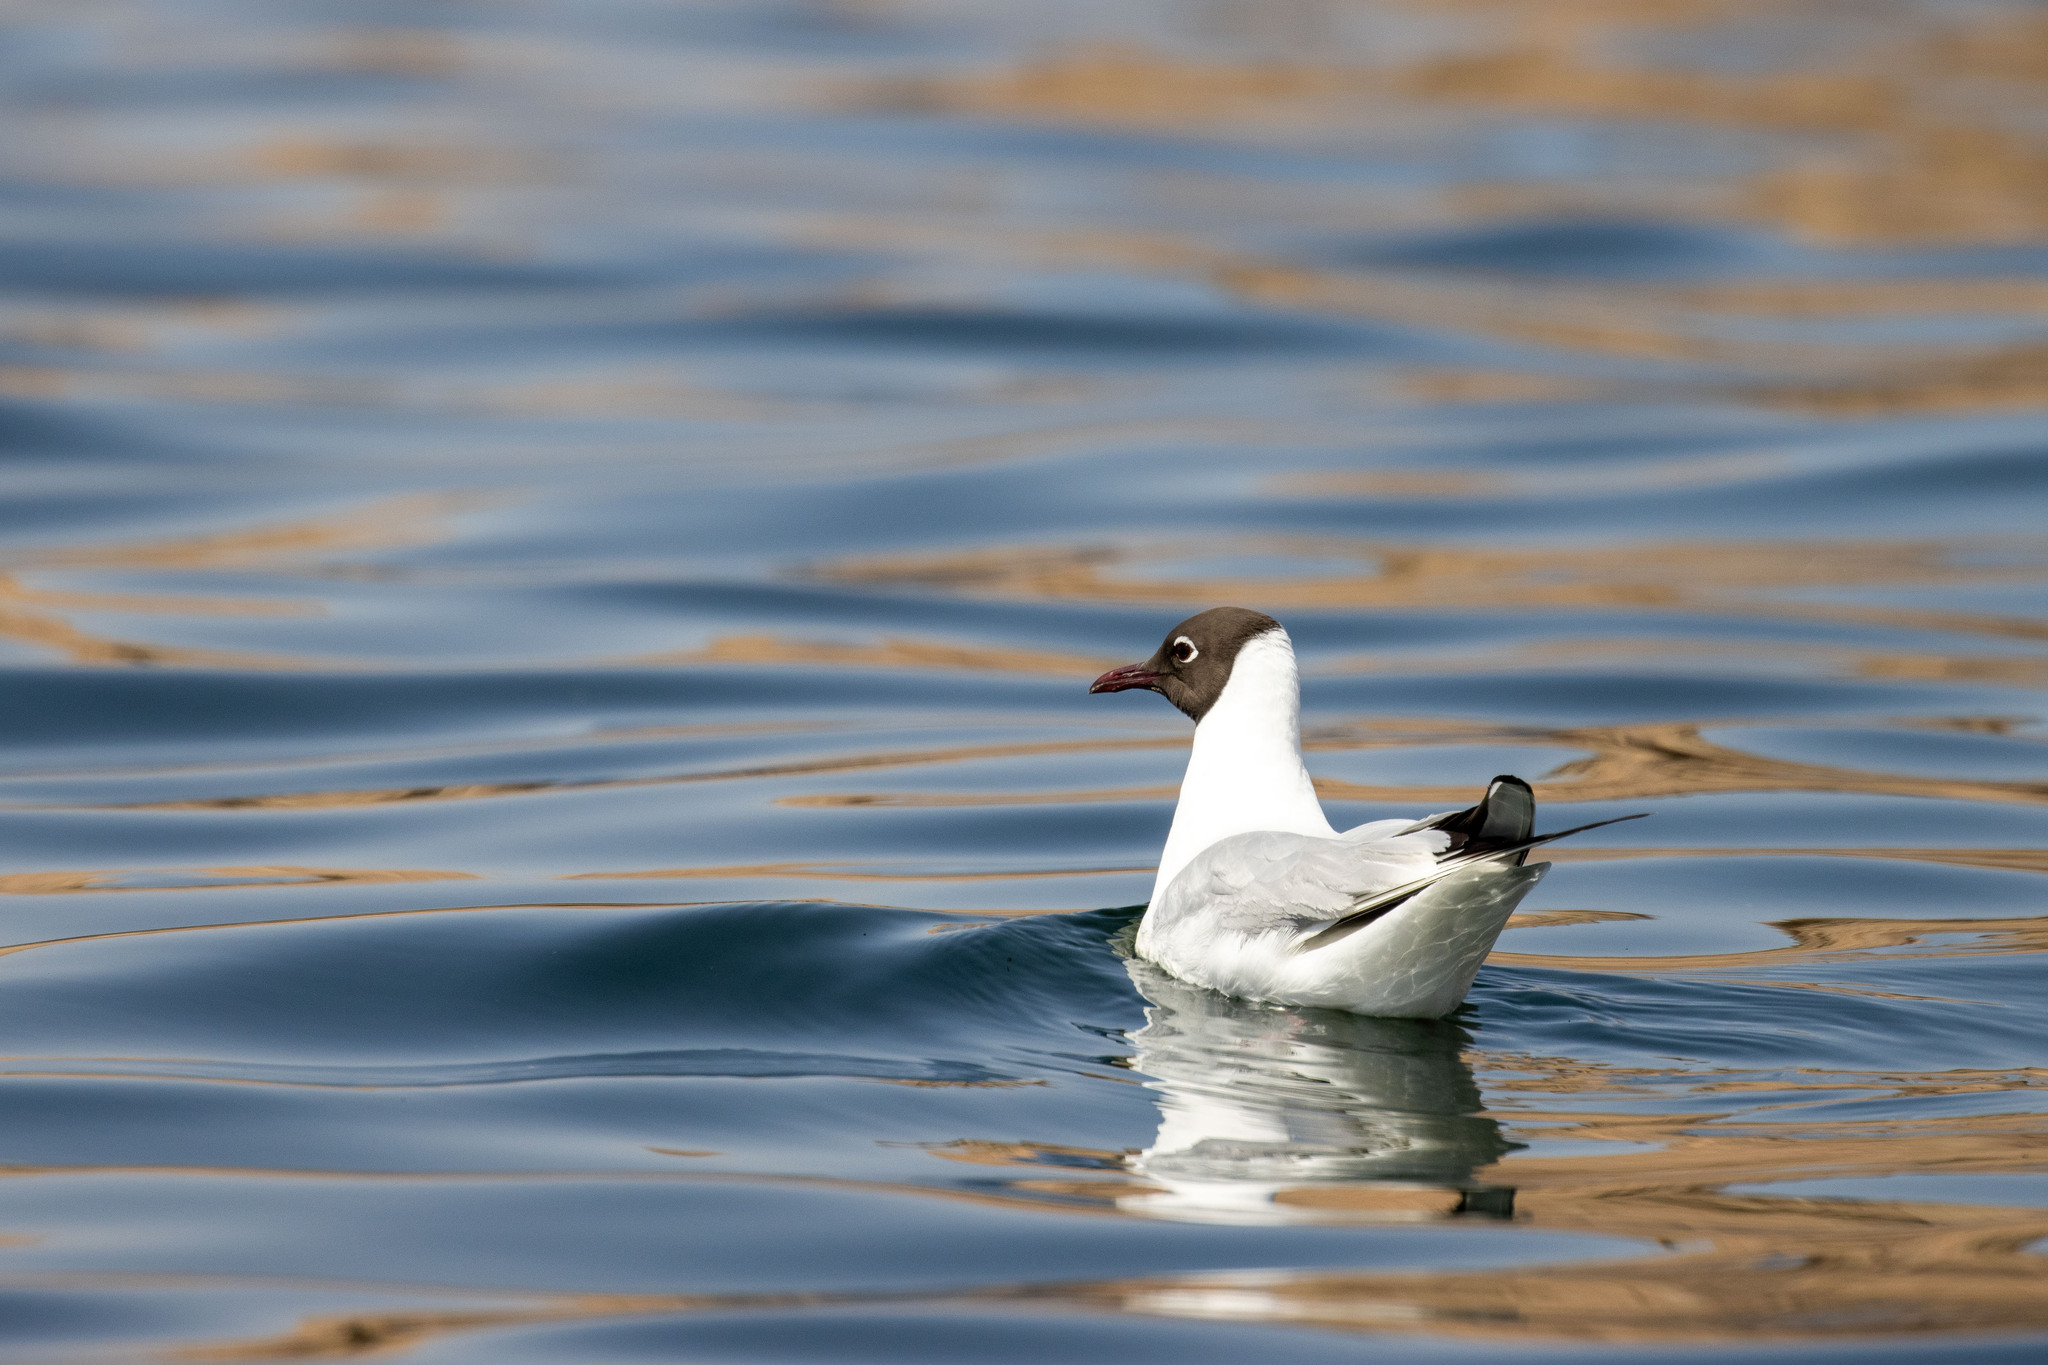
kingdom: Animalia
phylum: Chordata
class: Aves
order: Charadriiformes
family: Laridae
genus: Chroicocephalus
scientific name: Chroicocephalus ridibundus
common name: Black-headed gull
